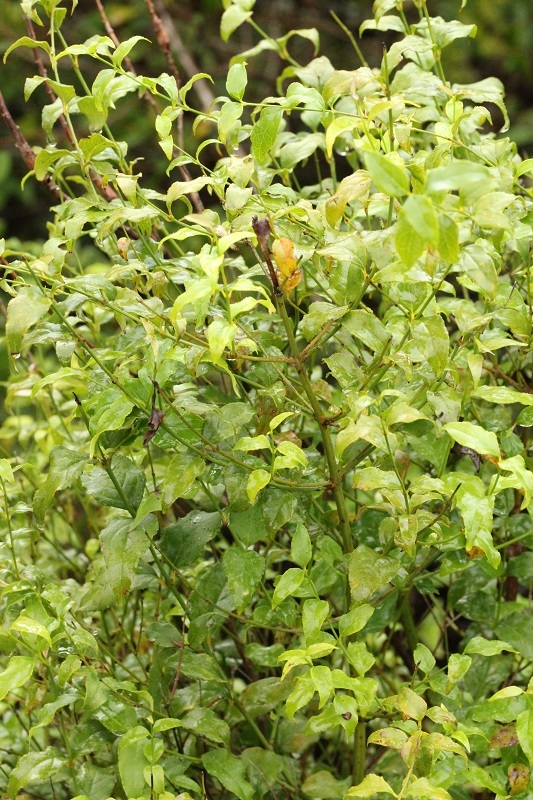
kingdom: Plantae
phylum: Tracheophyta
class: Magnoliopsida
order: Lamiales
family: Stilbaceae
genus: Halleria
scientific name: Halleria lucida
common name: Tree fuschia
